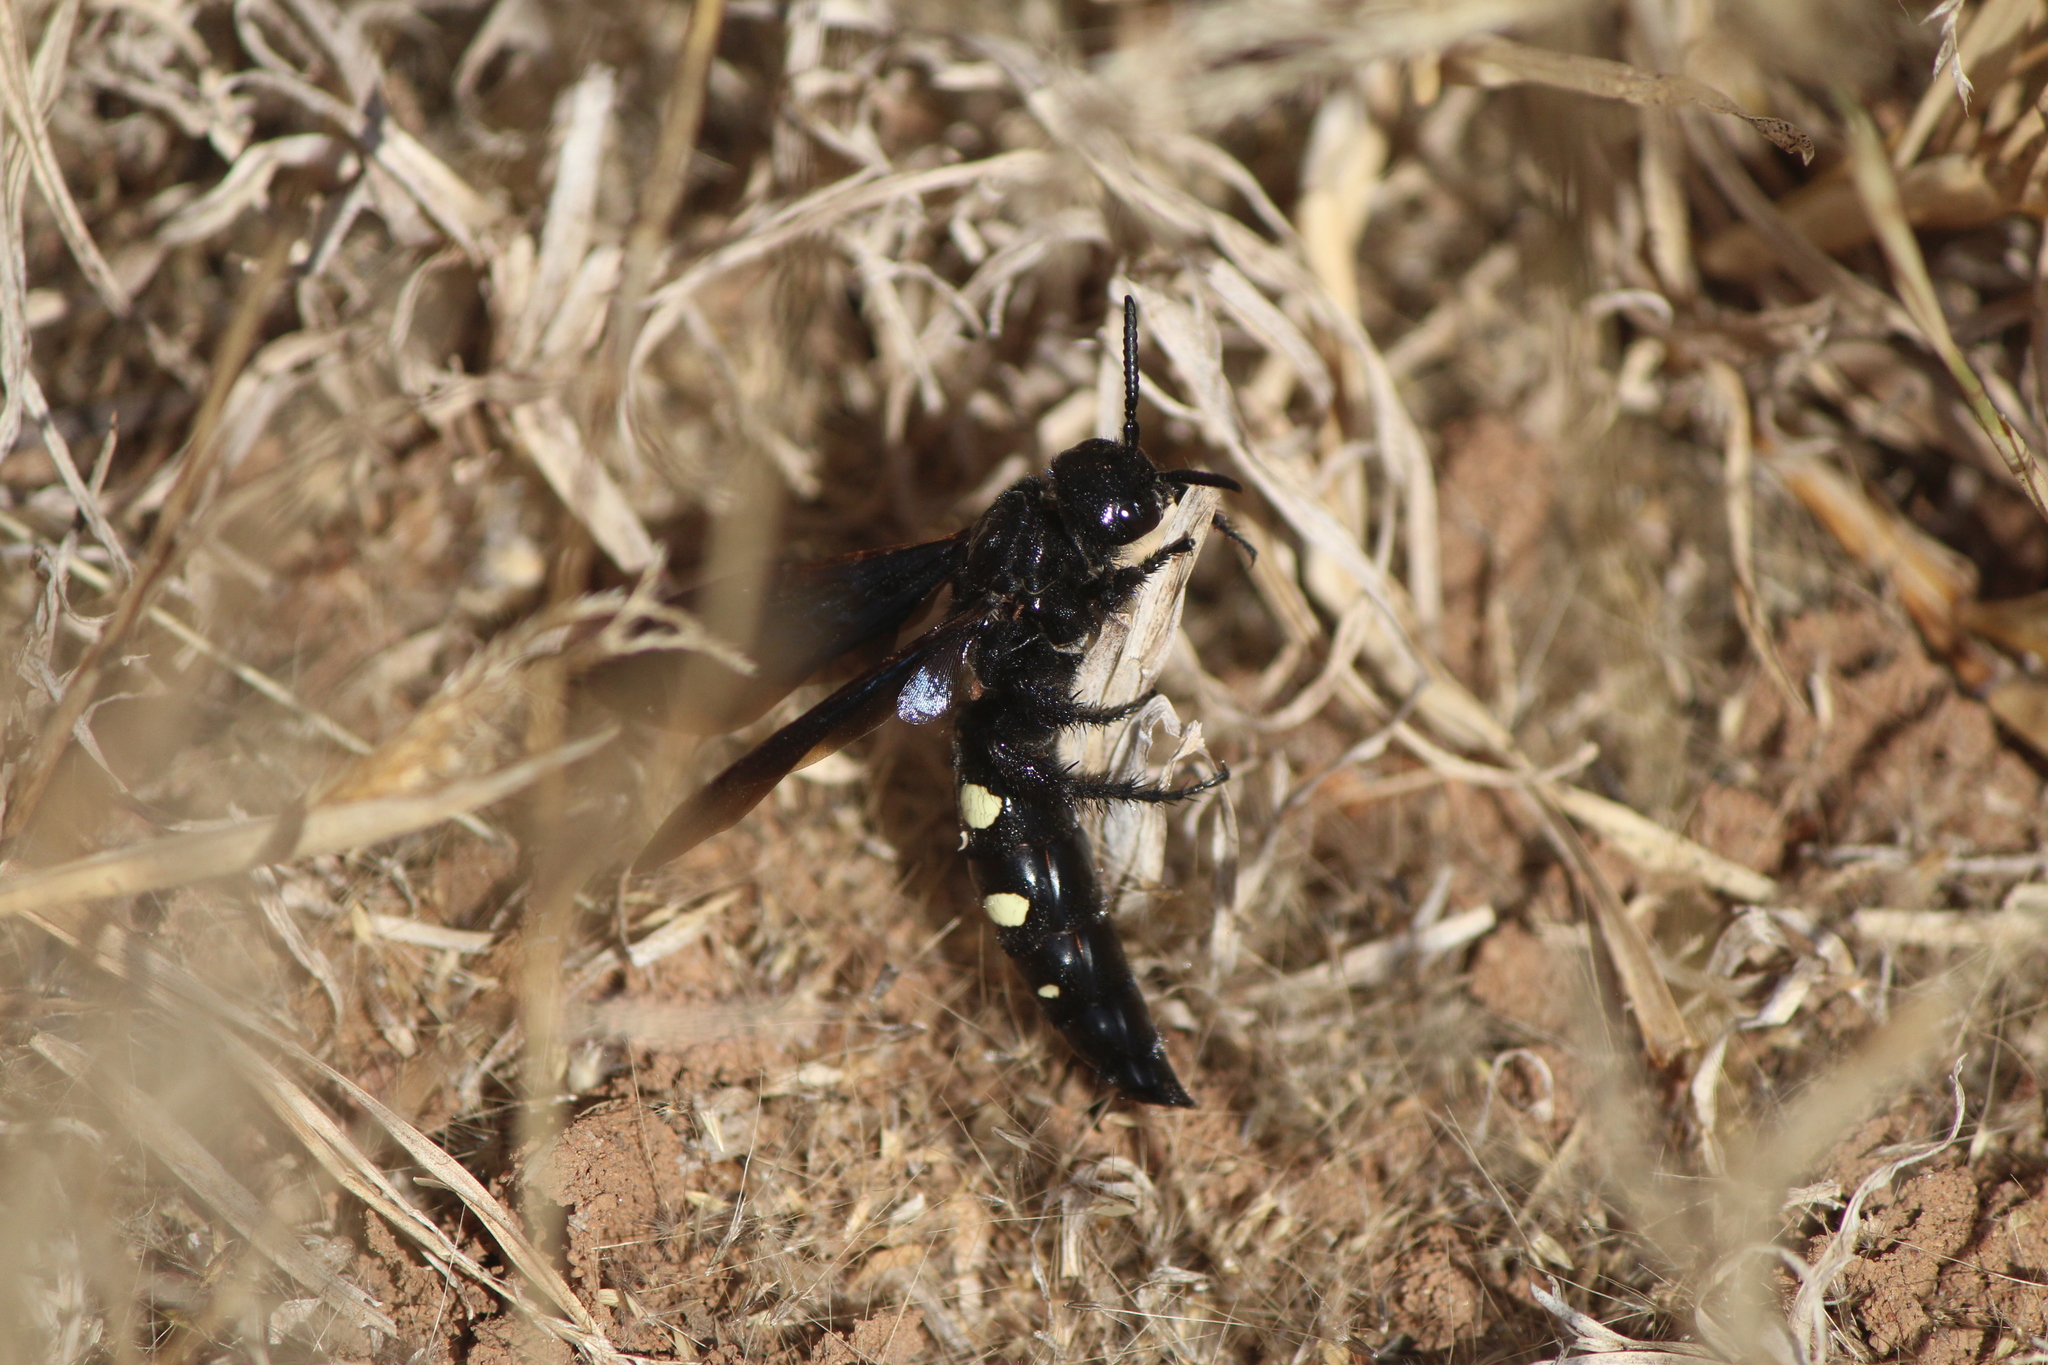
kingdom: Animalia
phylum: Arthropoda
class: Insecta
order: Hymenoptera
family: Scoliidae
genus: Scolia
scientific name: Scolia guttata
